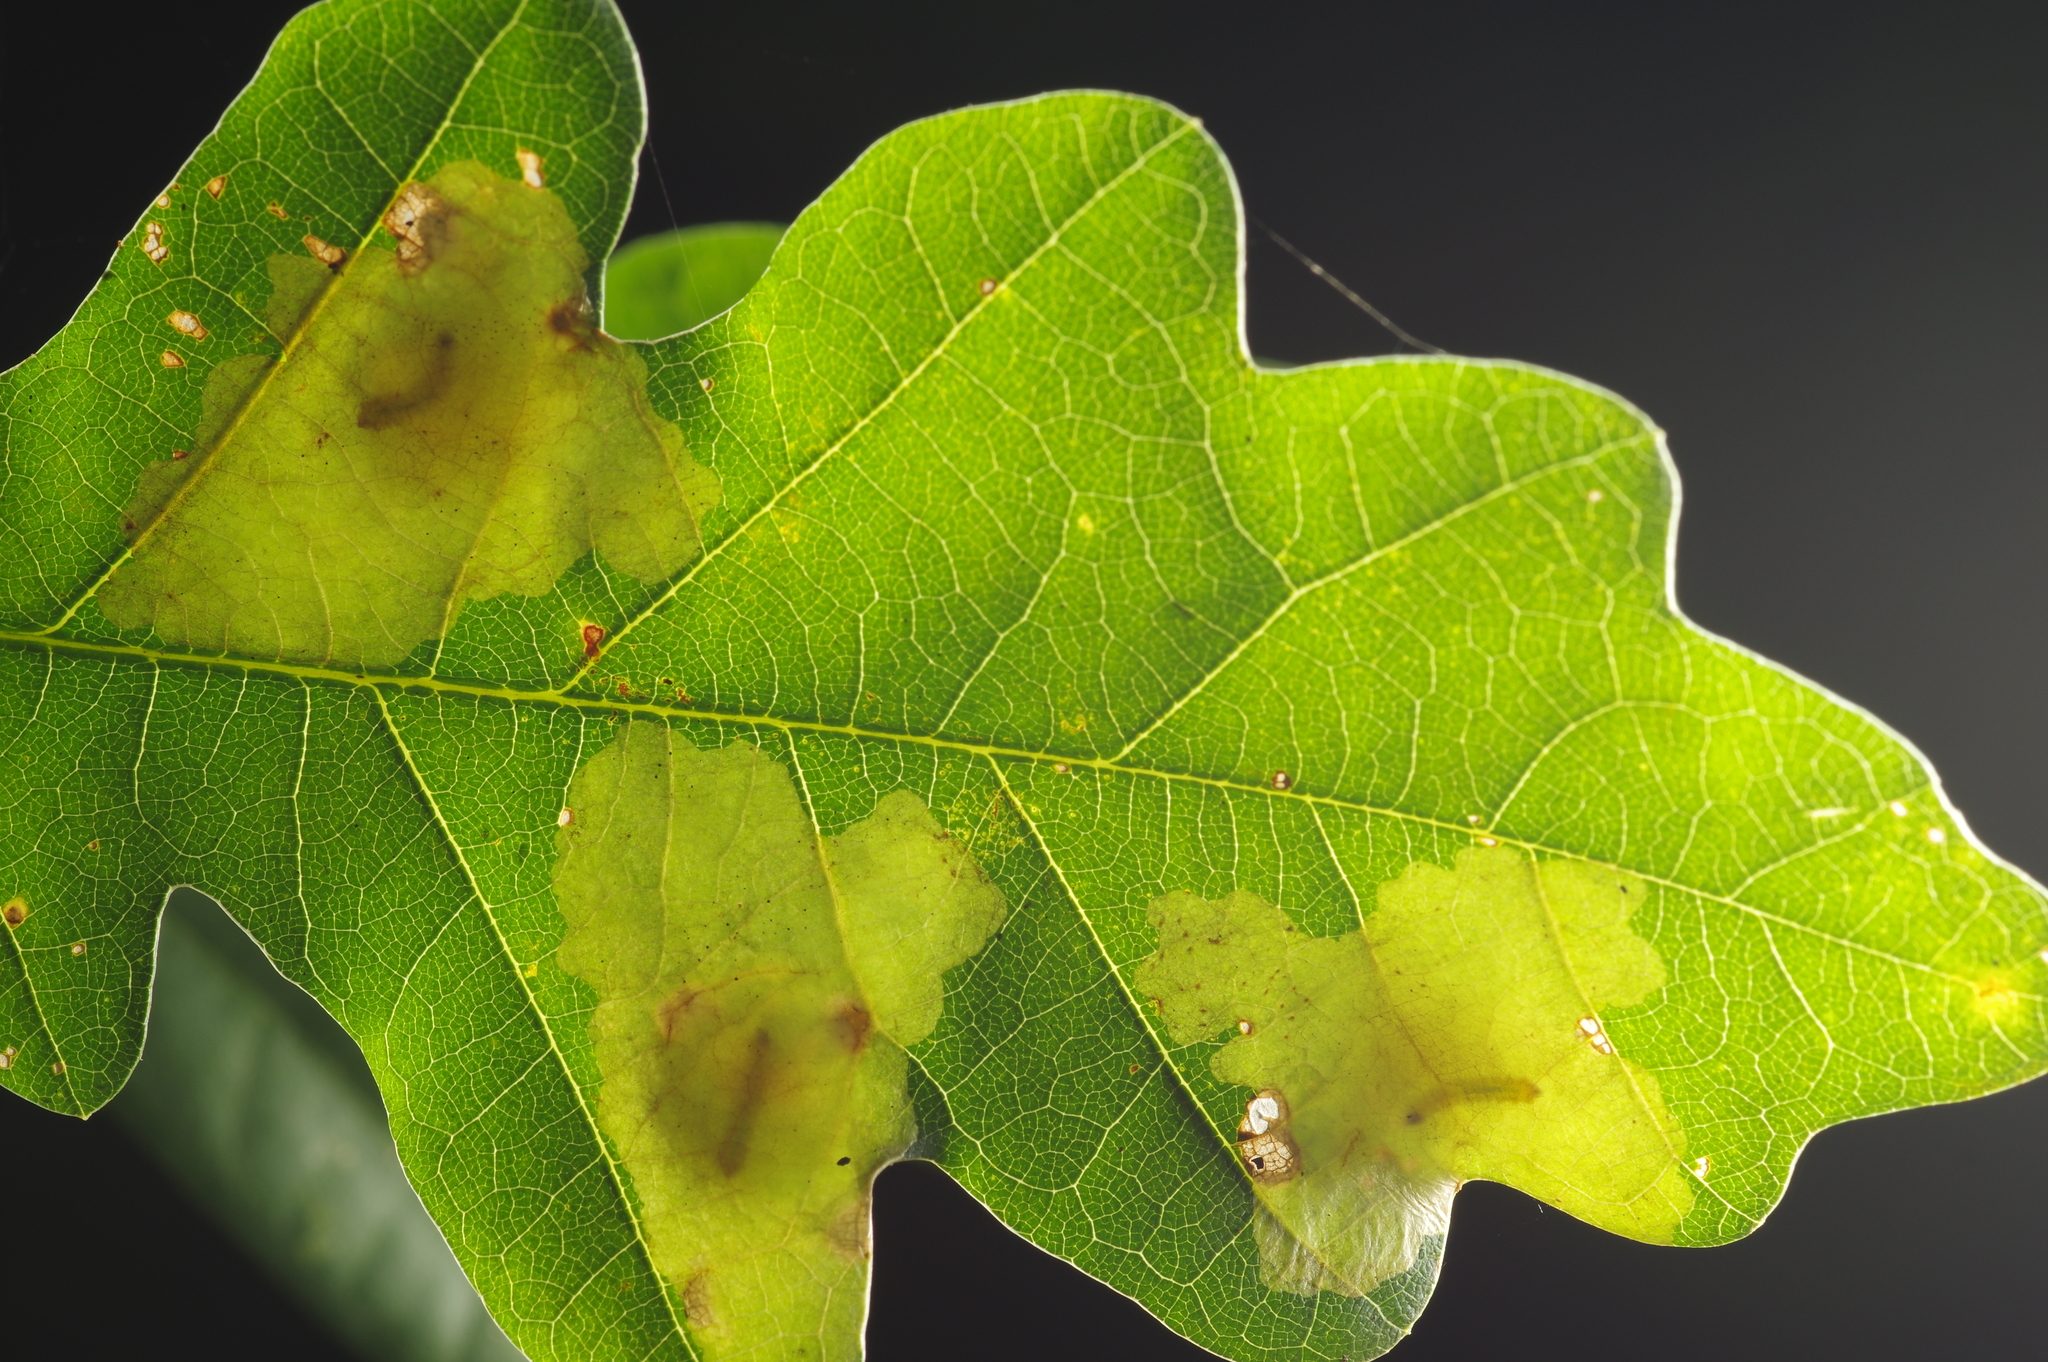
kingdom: Animalia
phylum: Arthropoda
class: Insecta
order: Lepidoptera
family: Tischeriidae
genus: Tischeria
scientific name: Tischeria ekebladella
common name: Oak carl
